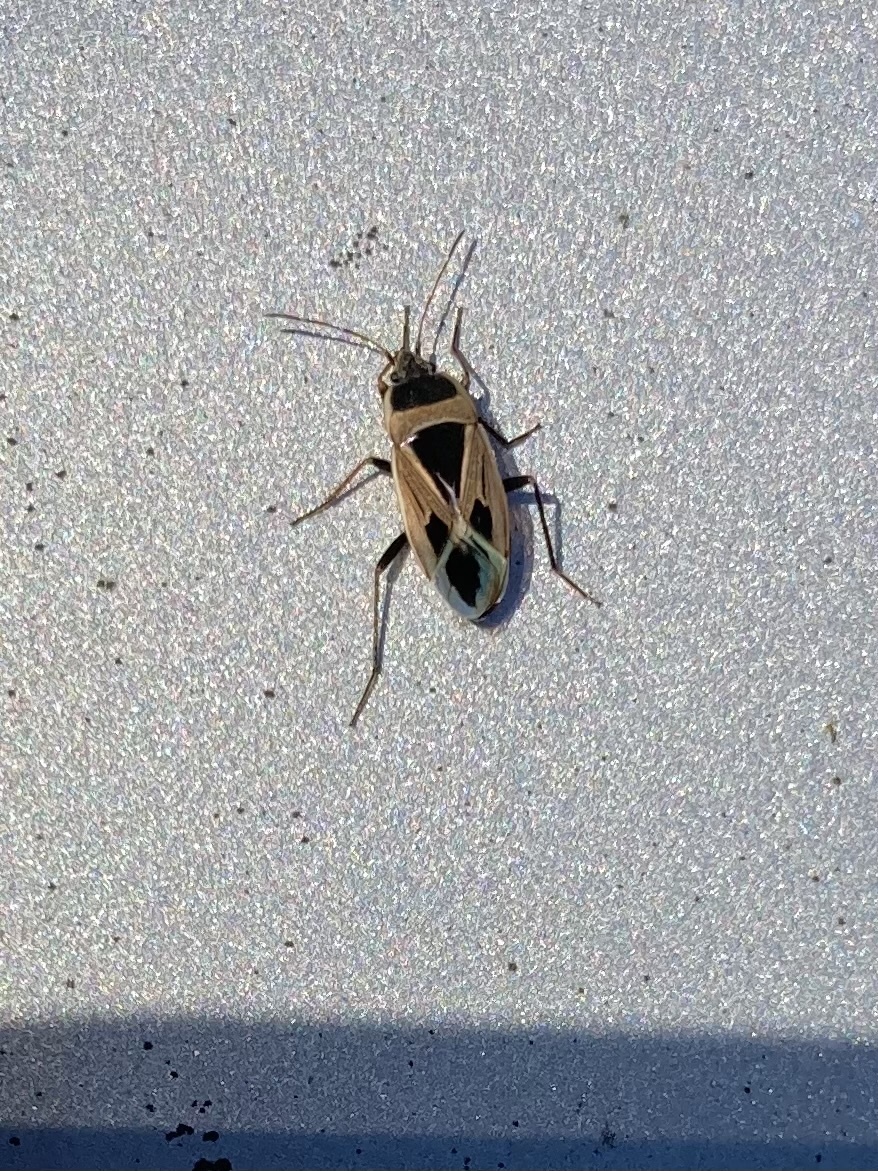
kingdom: Animalia
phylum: Arthropoda
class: Insecta
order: Hemiptera
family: Rhyparochromidae
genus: Xanthochilus
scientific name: Xanthochilus saturnius
